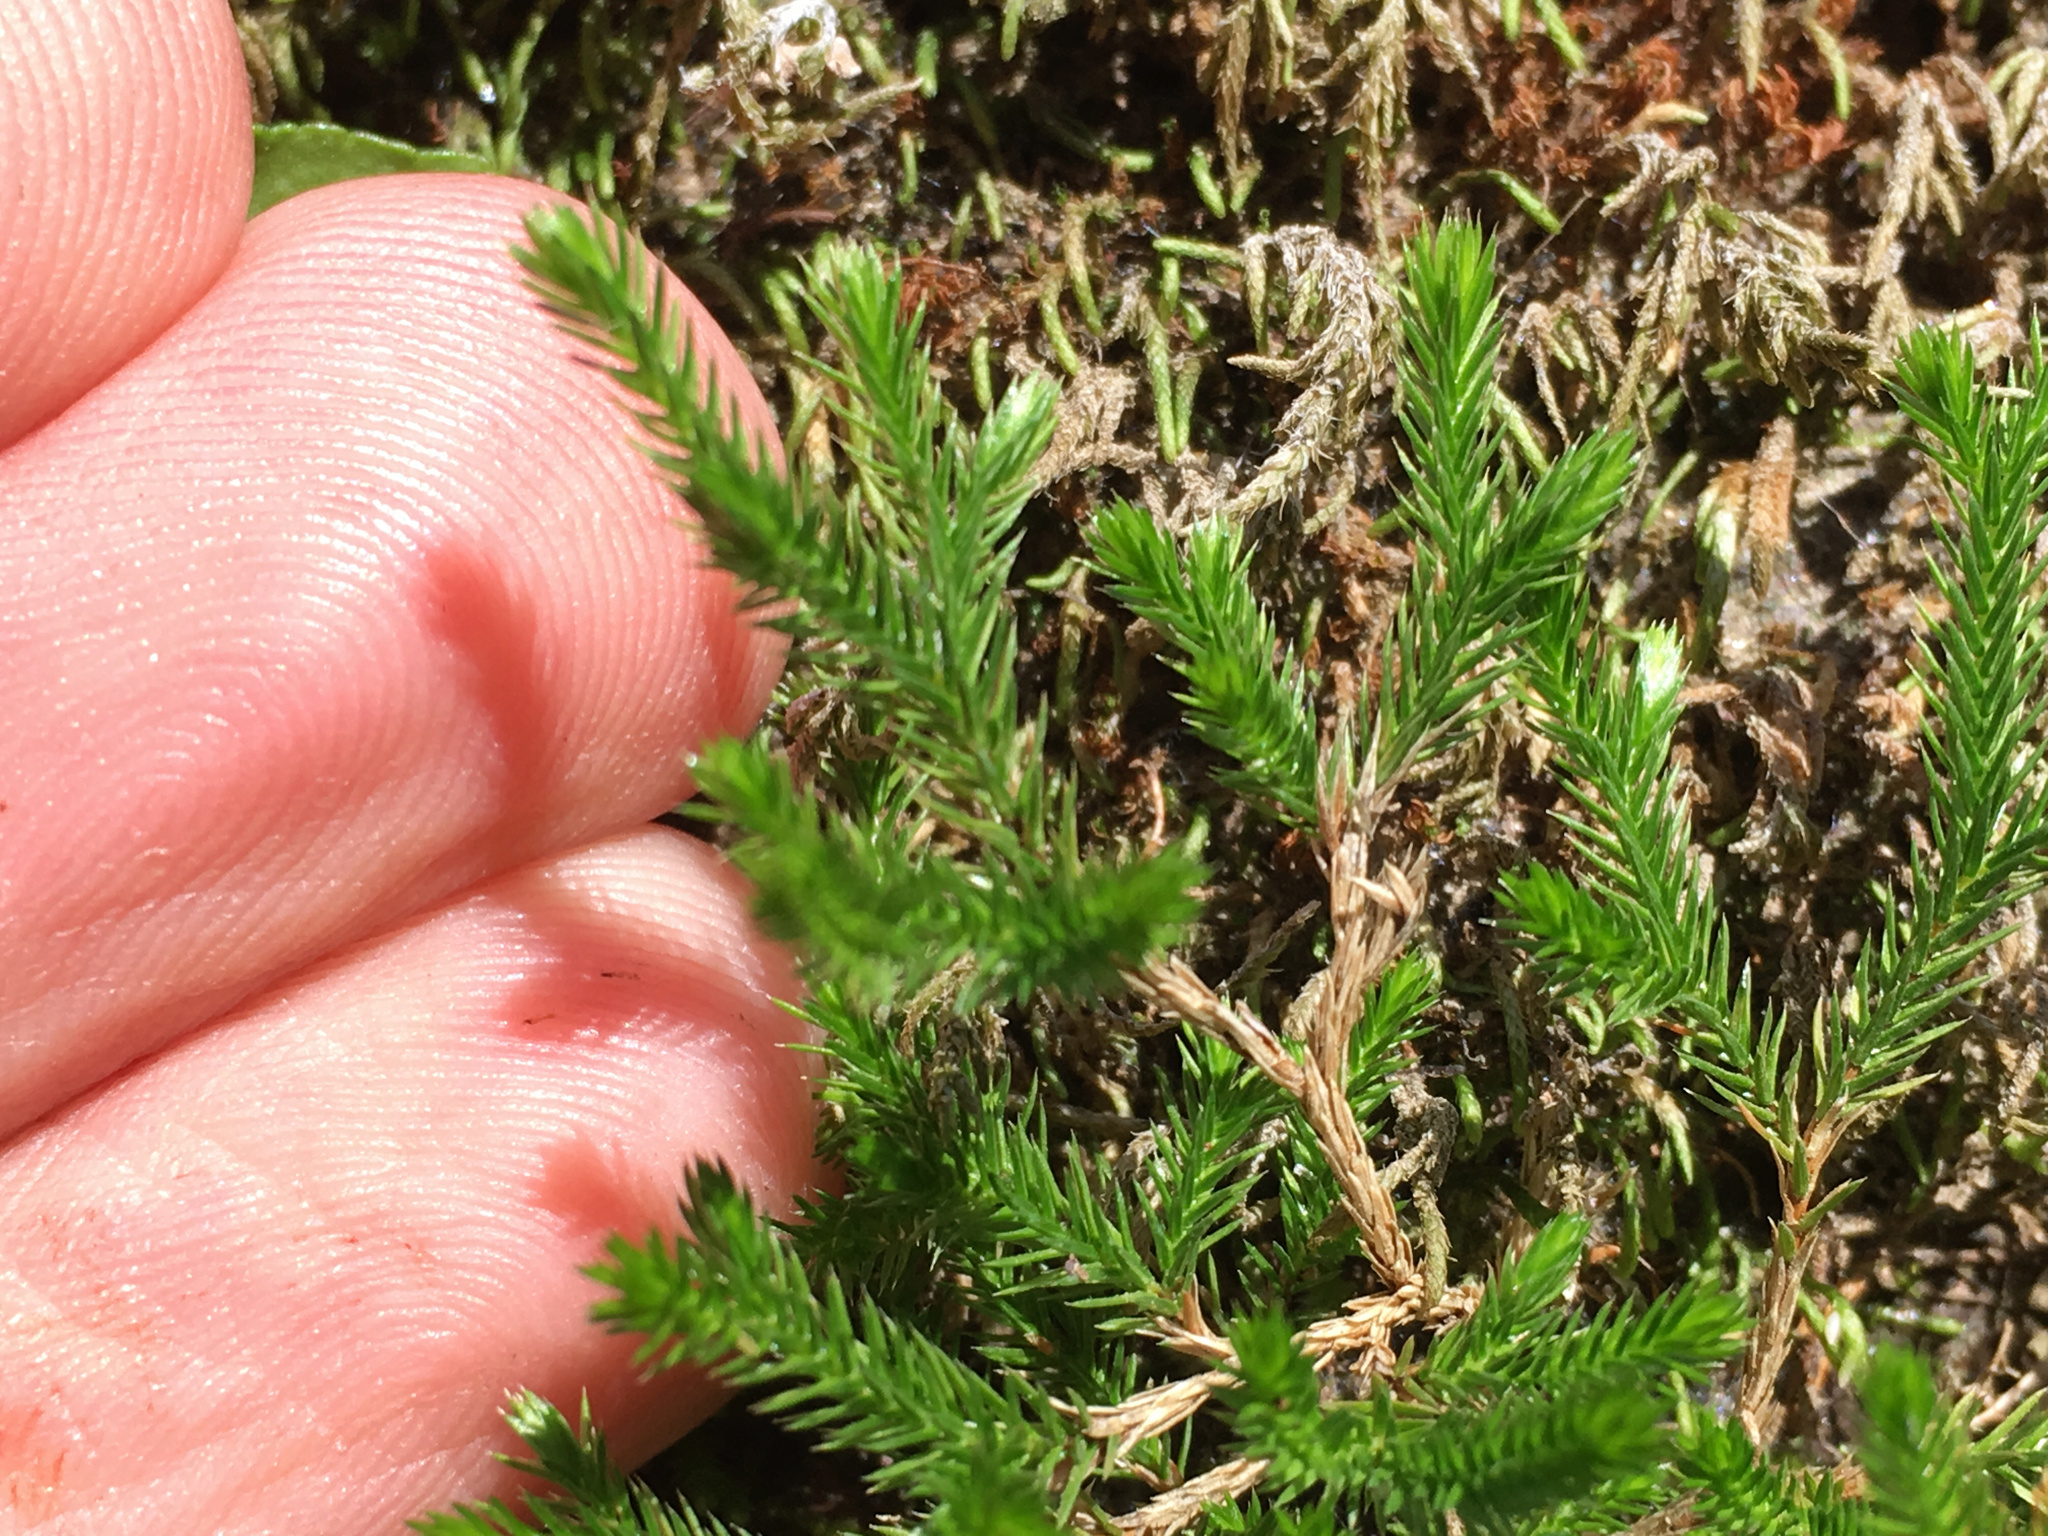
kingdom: Plantae
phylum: Tracheophyta
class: Lycopodiopsida
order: Selaginellales
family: Selaginellaceae
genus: Selaginella
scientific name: Selaginella bigelovii
